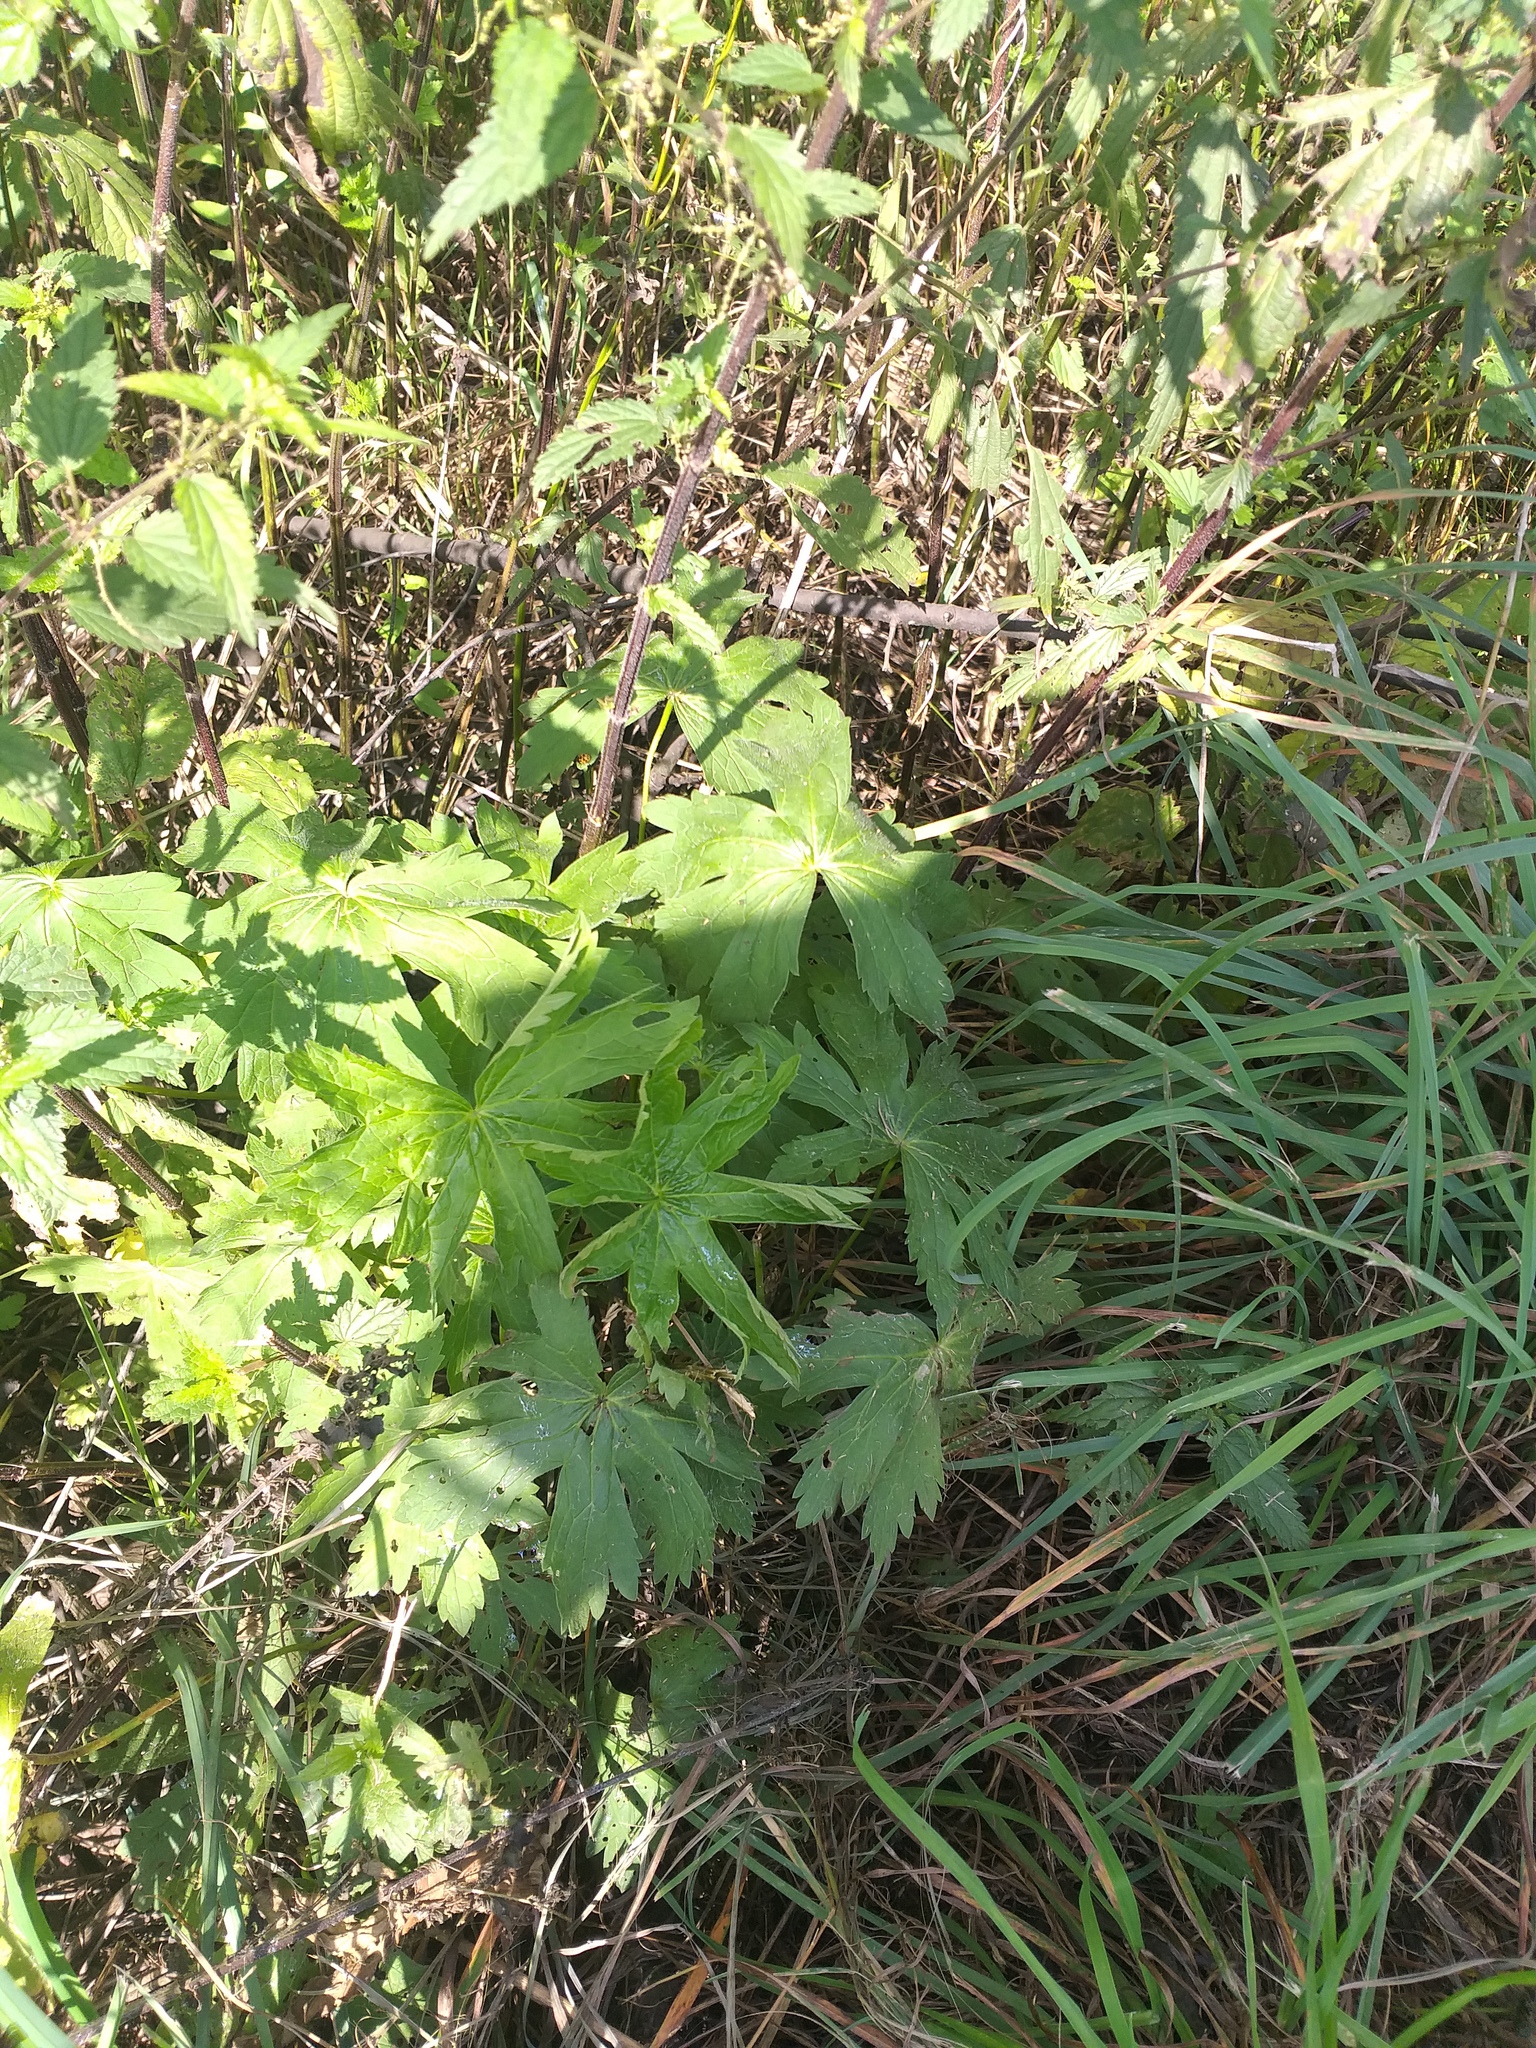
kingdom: Plantae
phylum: Tracheophyta
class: Magnoliopsida
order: Geraniales
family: Geraniaceae
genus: Geranium
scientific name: Geranium sylvaticum
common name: Wood crane's-bill
